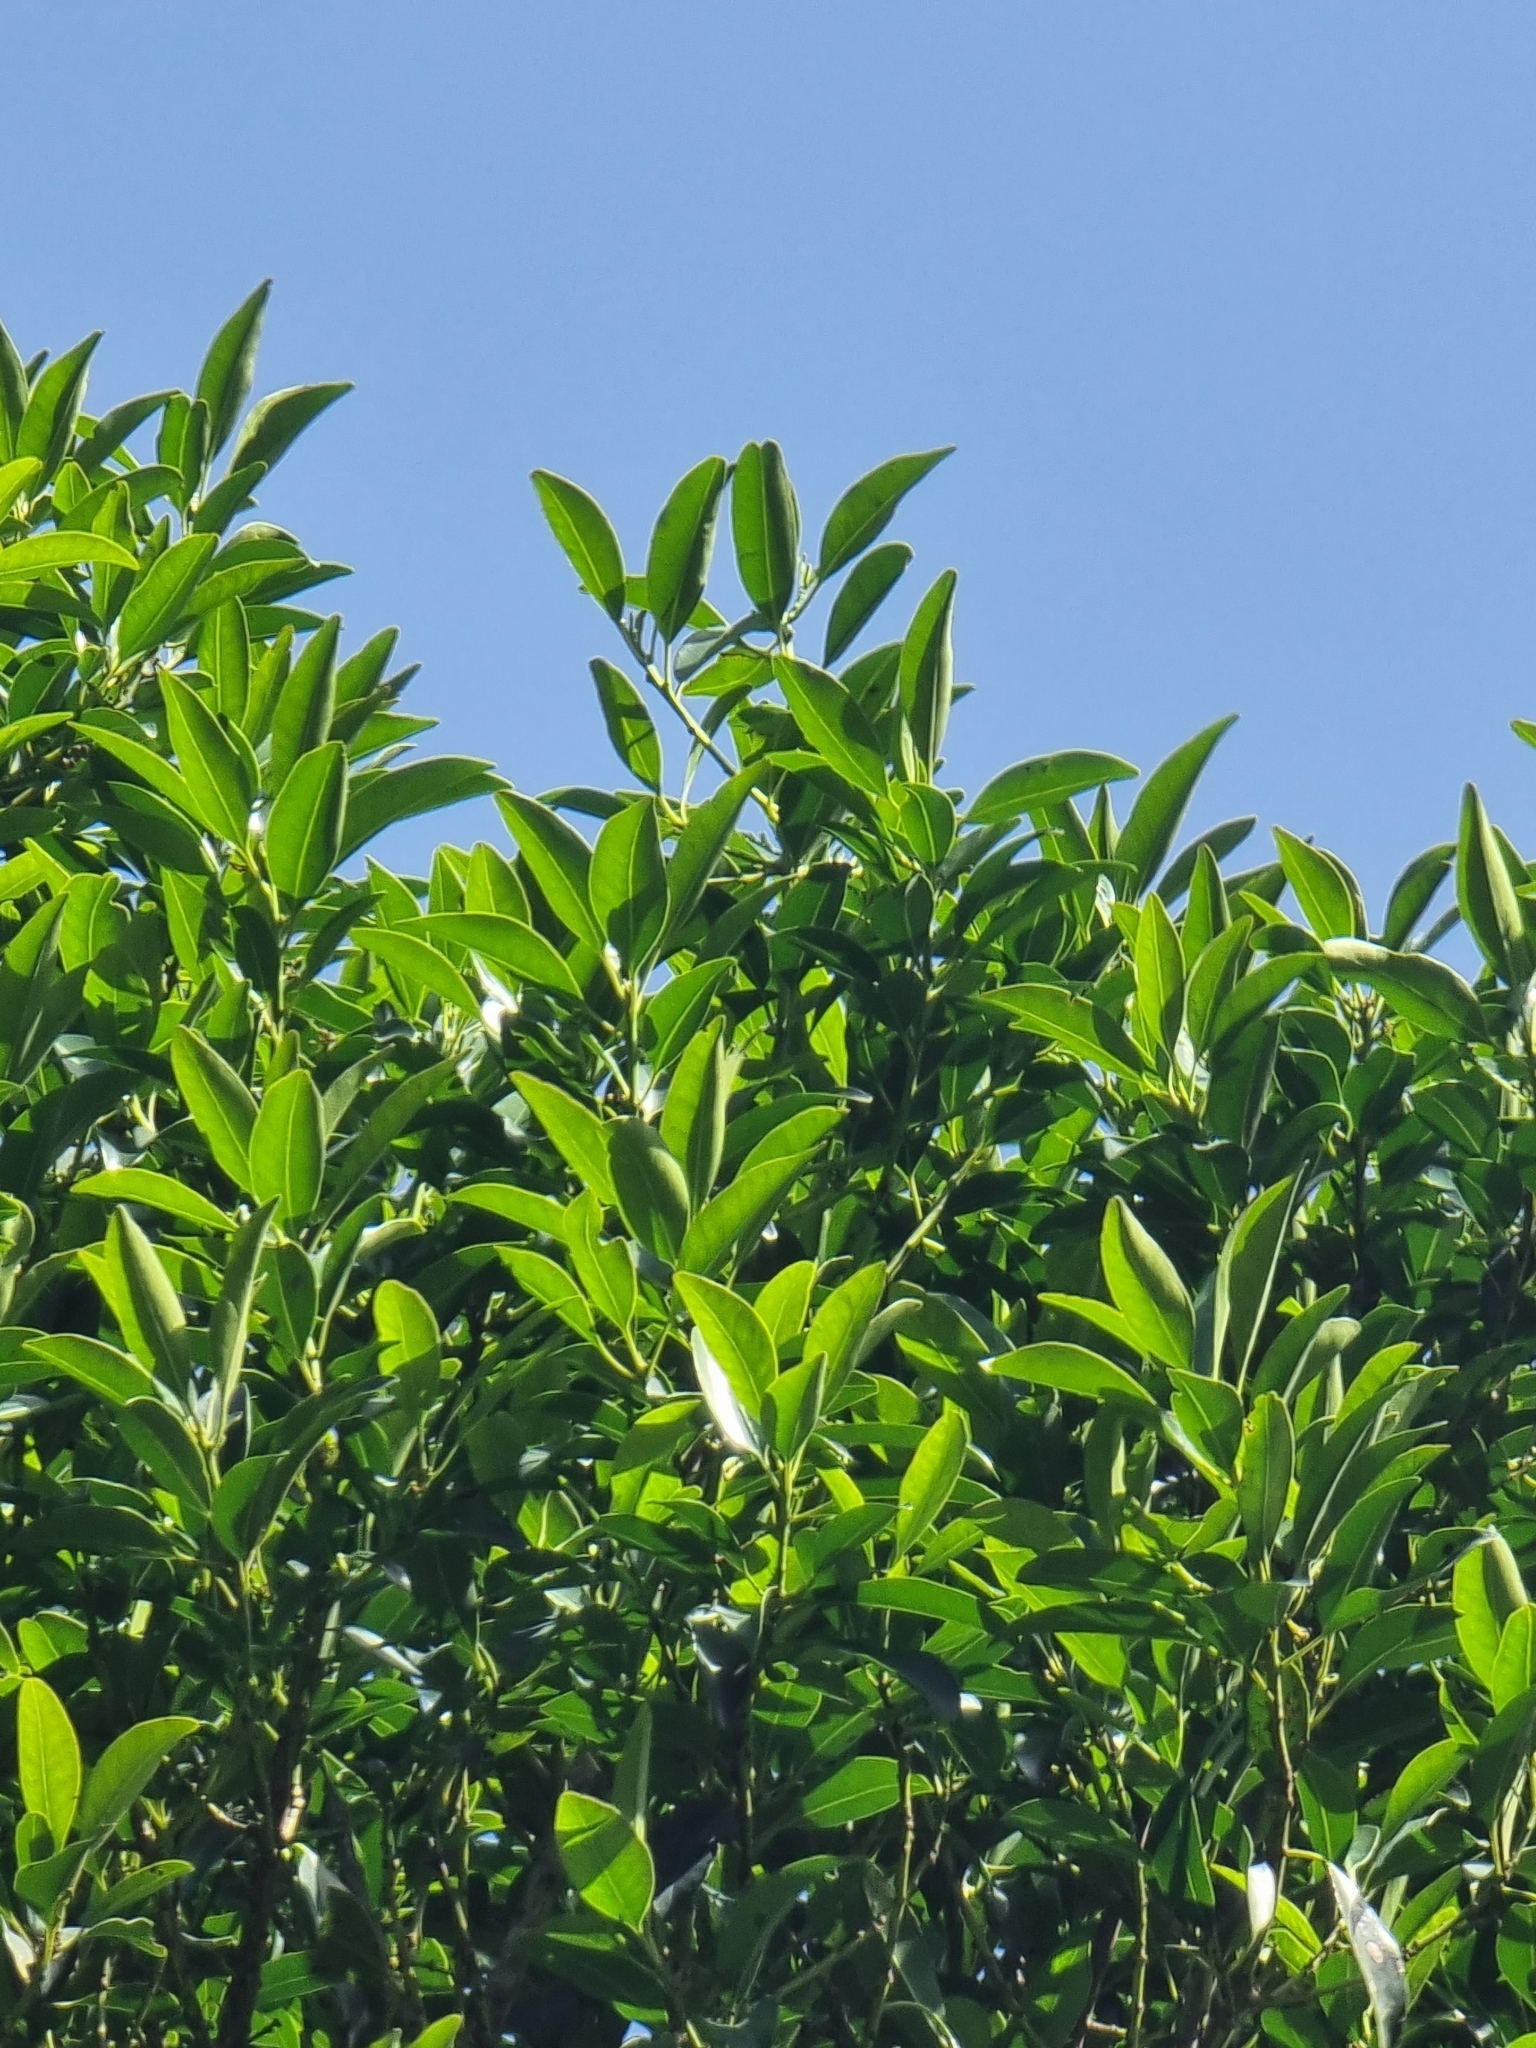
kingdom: Plantae
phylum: Tracheophyta
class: Magnoliopsida
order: Aquifoliales
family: Aquifoliaceae
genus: Ilex
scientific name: Ilex canariensis
